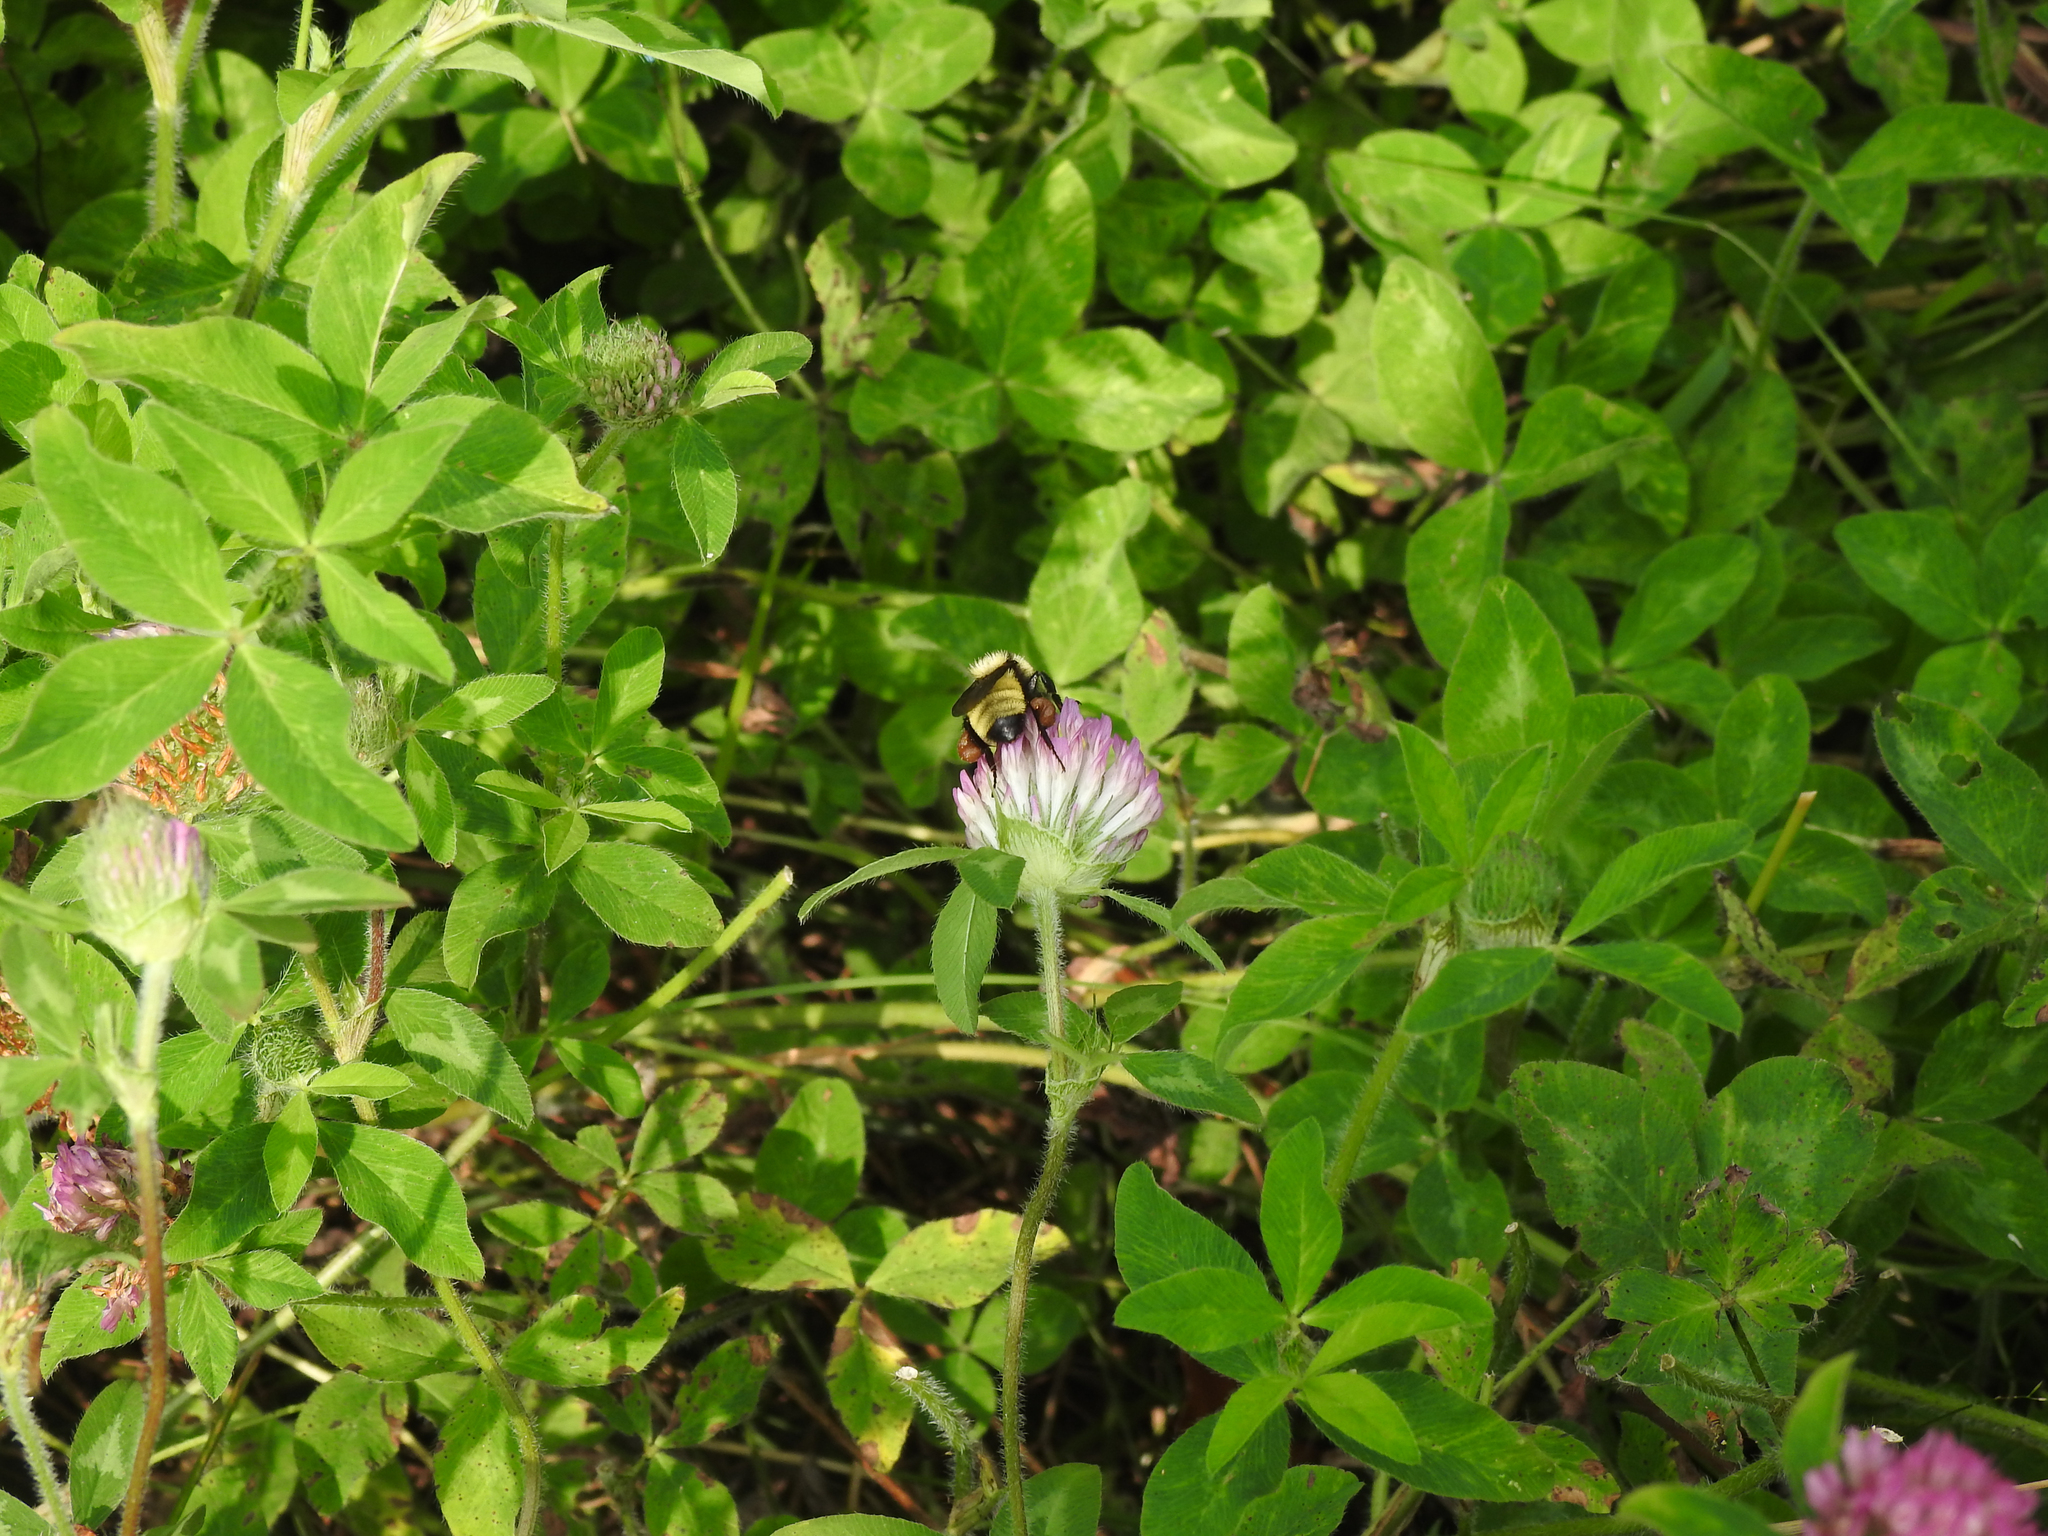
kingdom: Animalia
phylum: Arthropoda
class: Insecta
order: Hymenoptera
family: Apidae
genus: Bombus
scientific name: Bombus fervidus
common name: Yellow bumble bee
